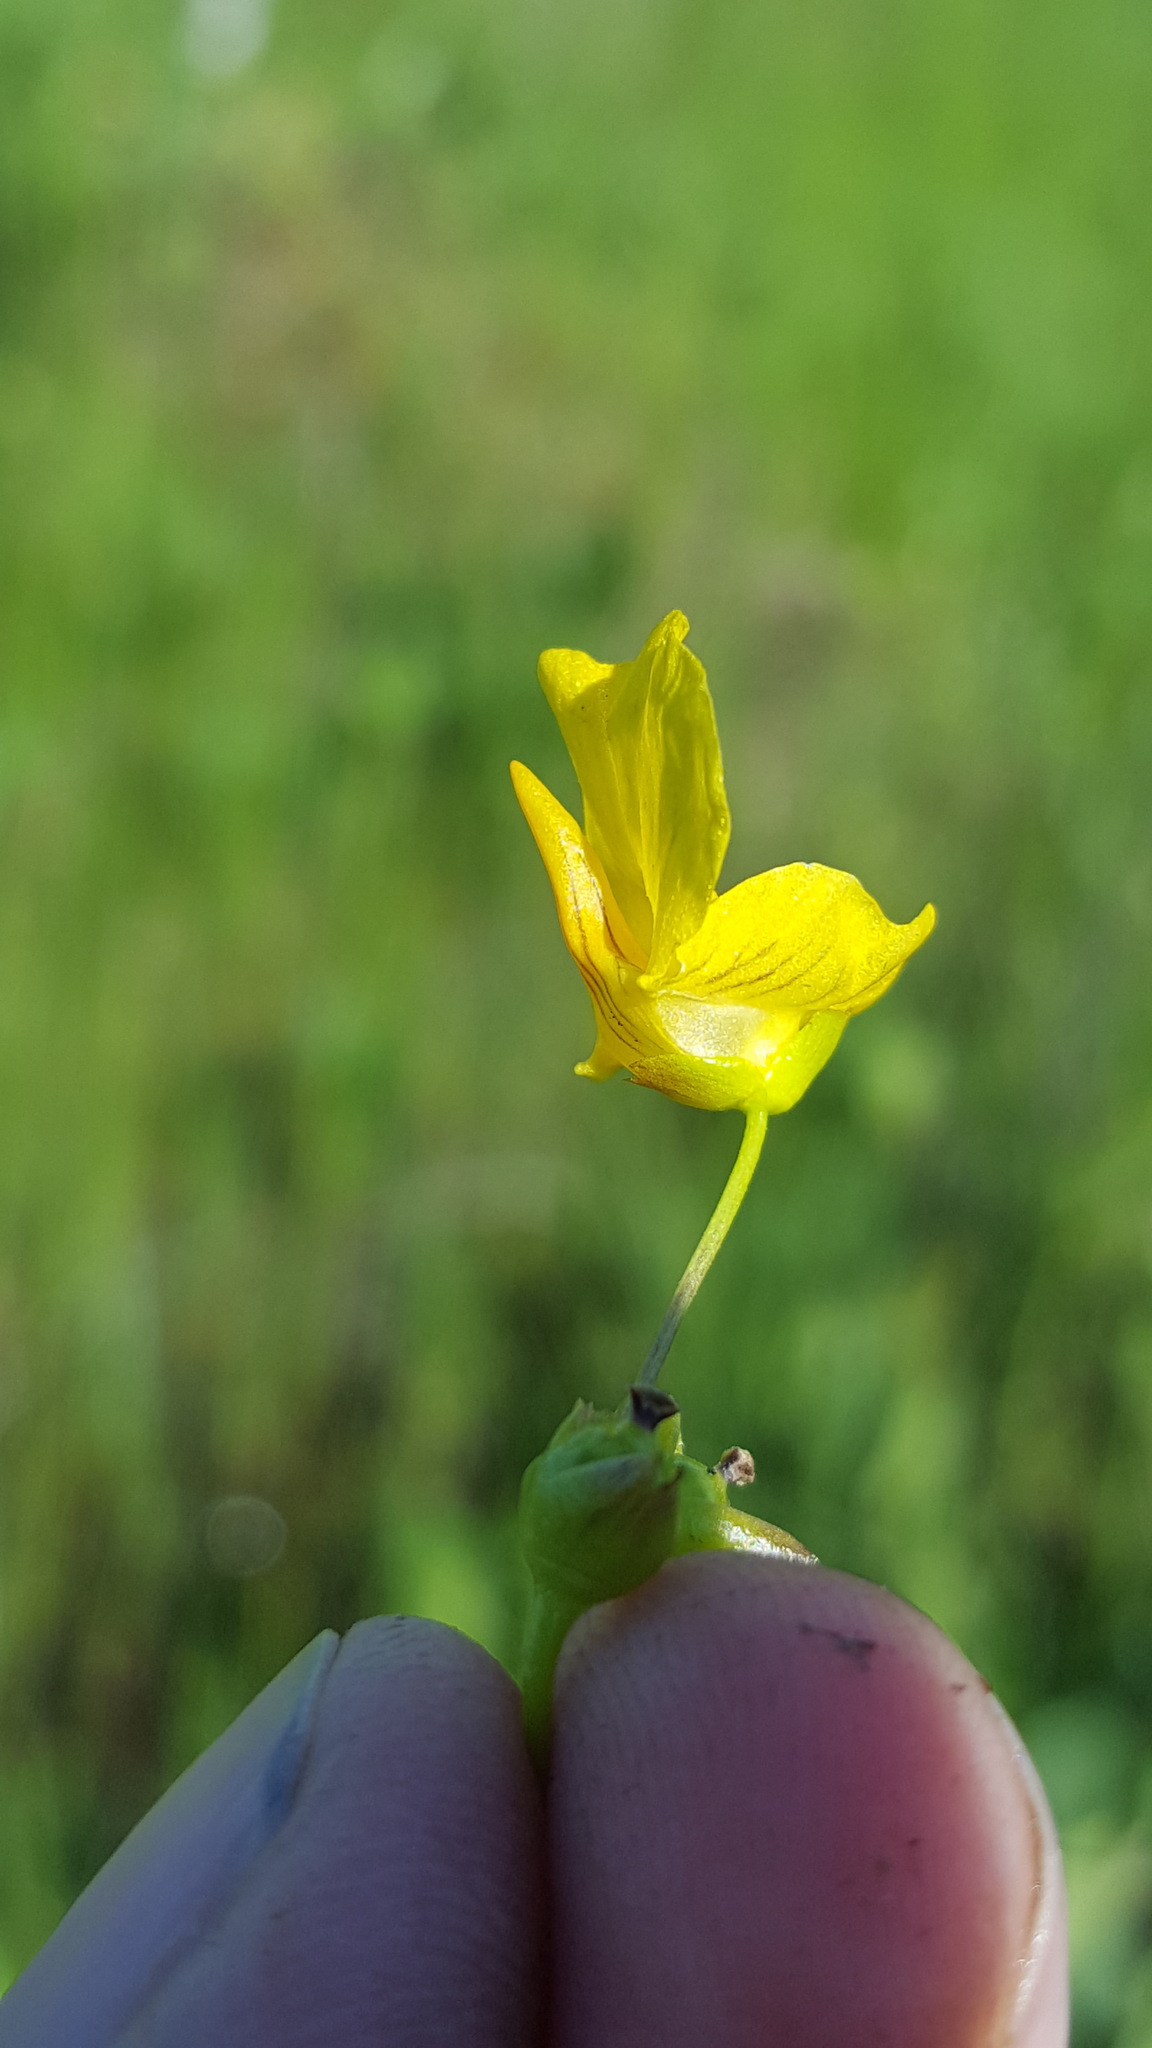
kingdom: Plantae
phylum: Tracheophyta
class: Magnoliopsida
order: Lamiales
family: Lentibulariaceae
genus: Utricularia
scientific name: Utricularia intermedia
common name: Intermediate bladderwort
